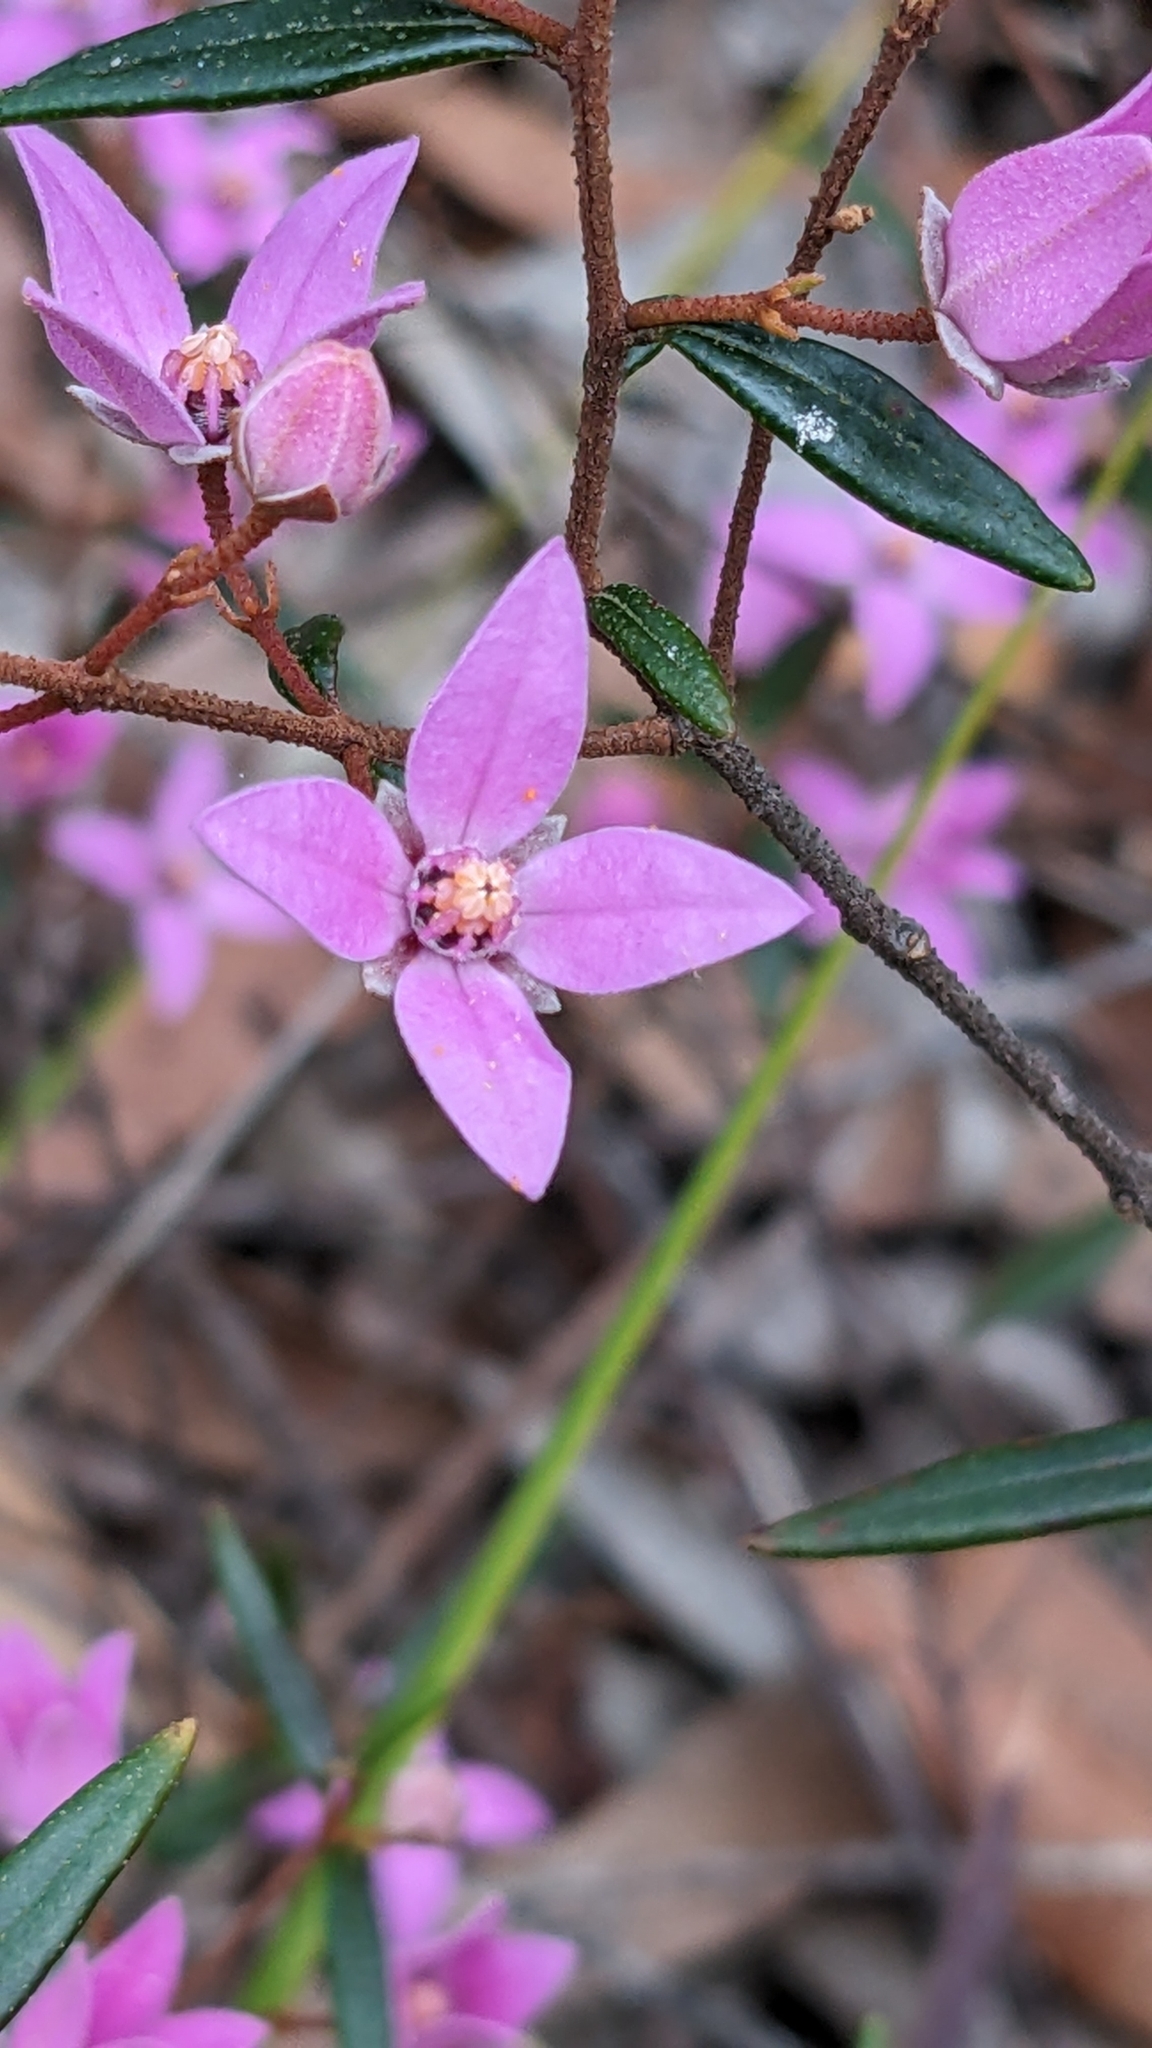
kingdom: Plantae
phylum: Tracheophyta
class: Magnoliopsida
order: Sapindales
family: Rutaceae
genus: Boronia
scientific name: Boronia ledifolia
